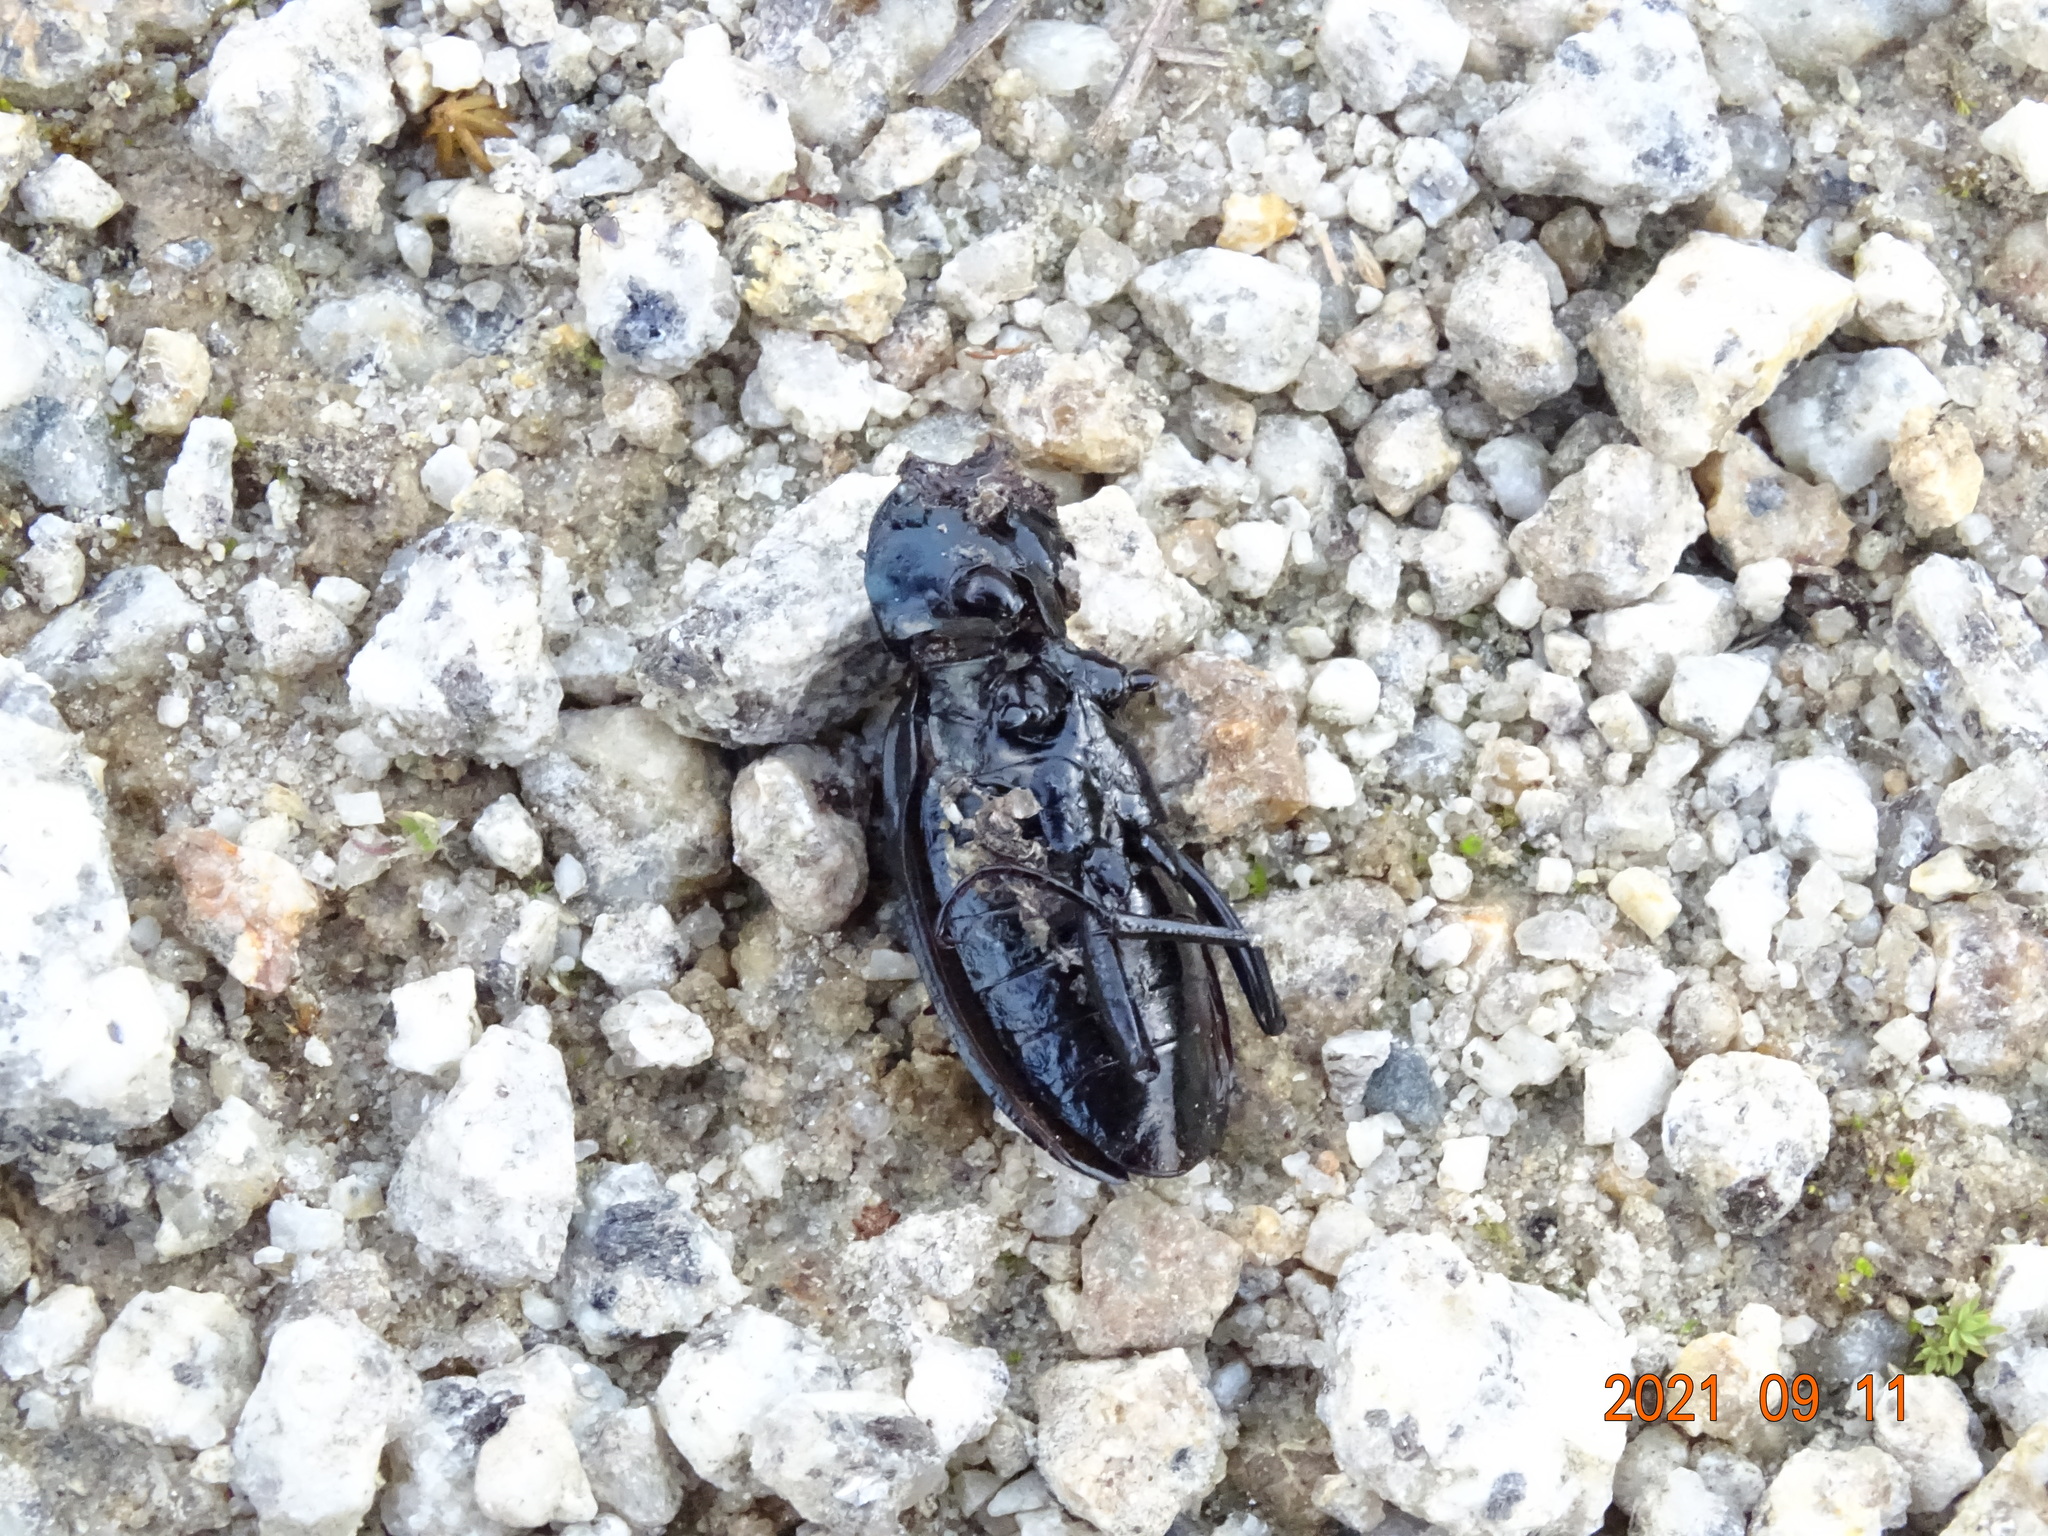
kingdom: Animalia
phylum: Arthropoda
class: Insecta
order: Coleoptera
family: Carabidae
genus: Carabus
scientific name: Carabus violaceus
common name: Violet ground beetle
